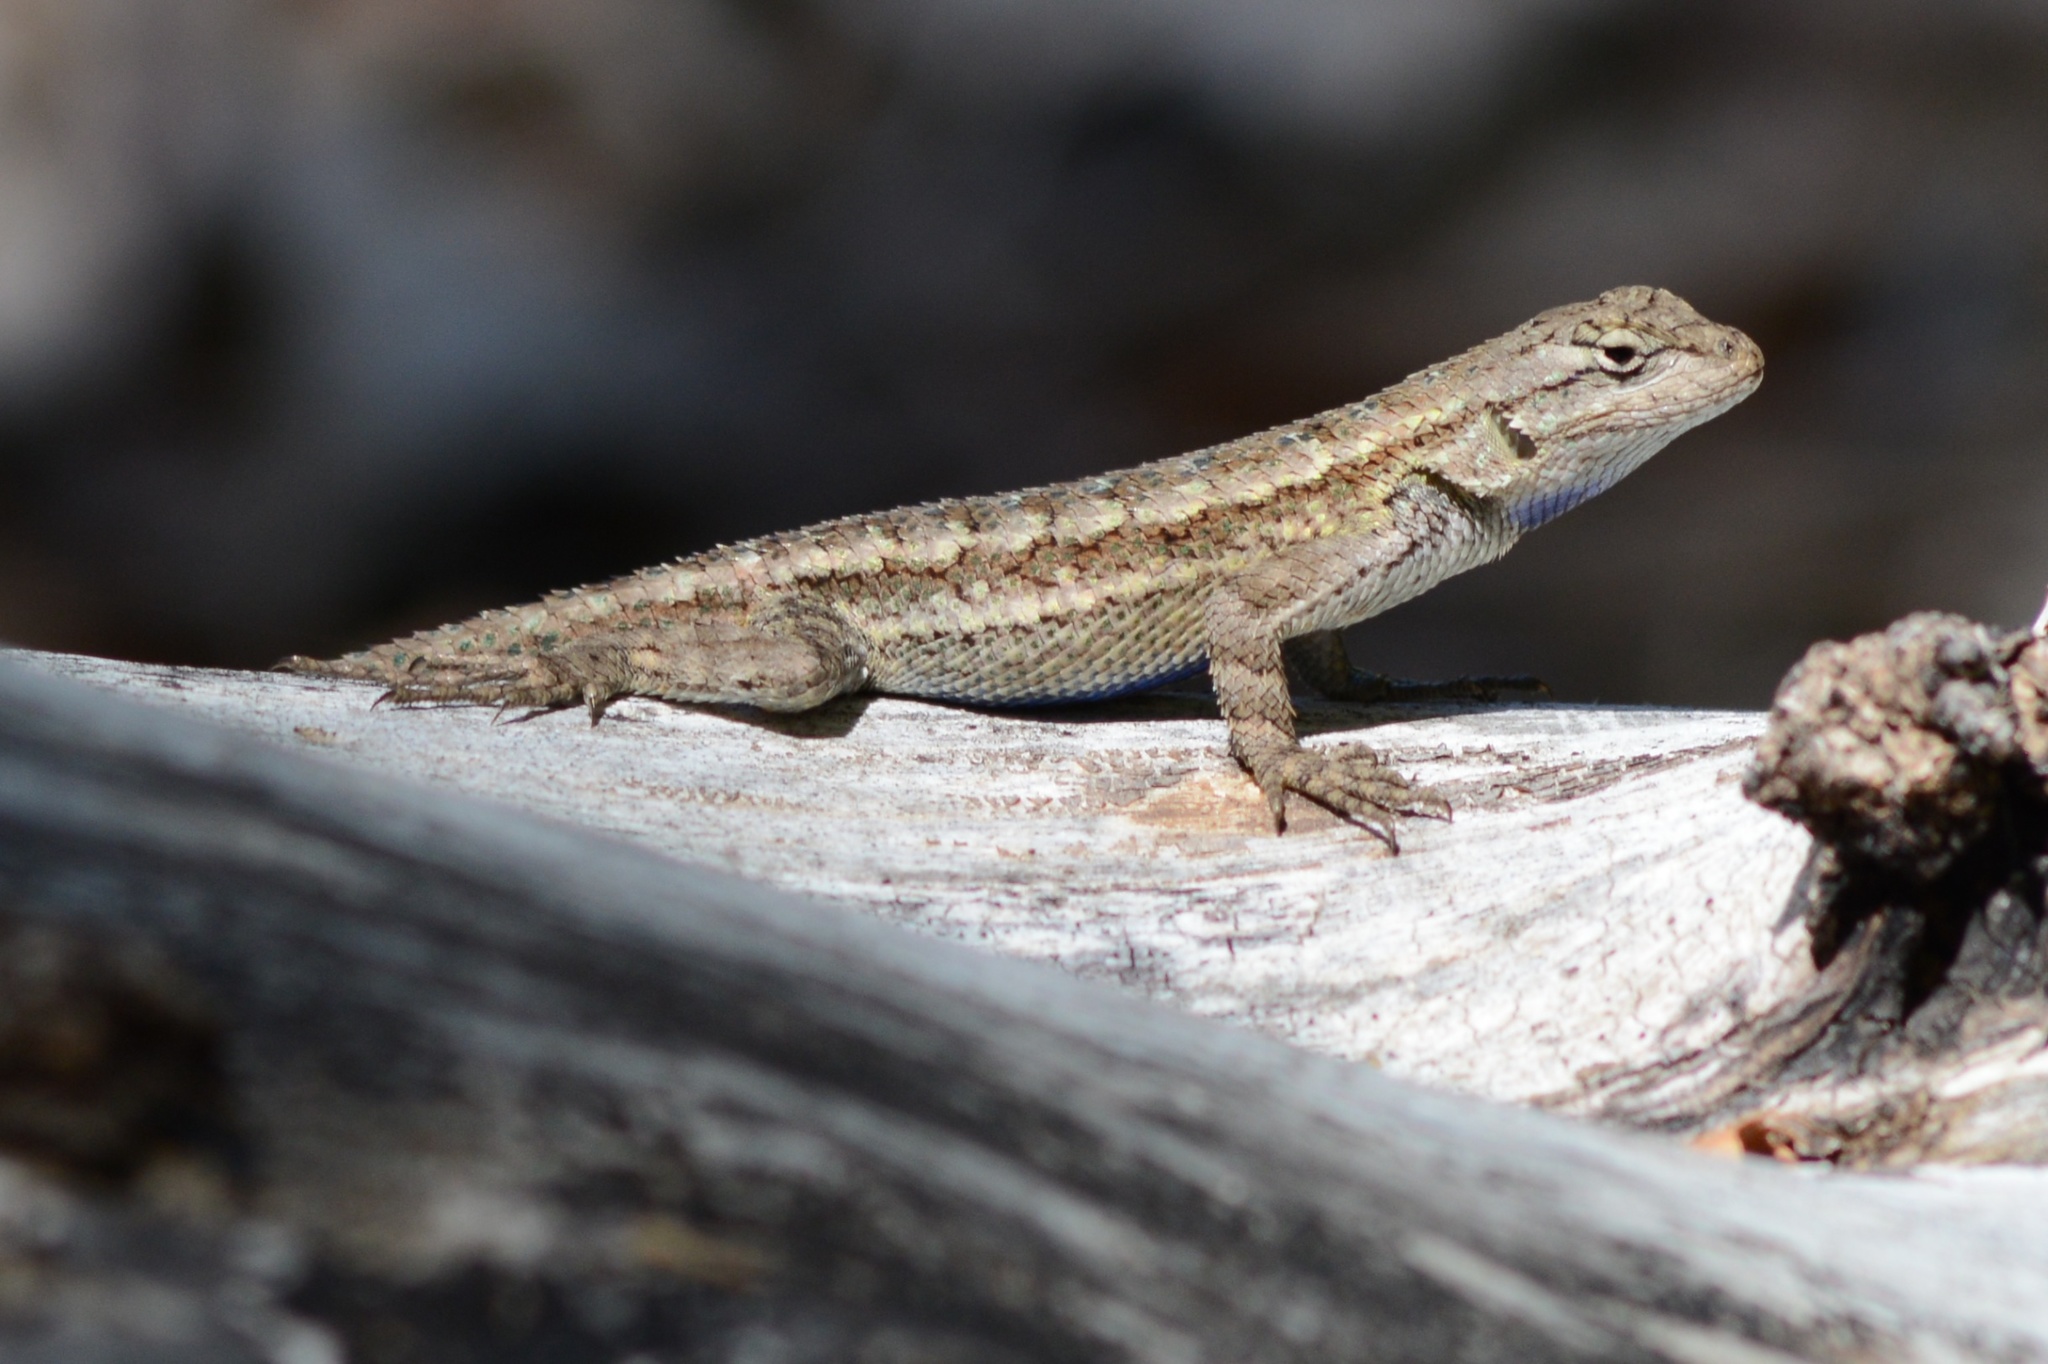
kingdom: Animalia
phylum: Chordata
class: Squamata
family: Phrynosomatidae
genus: Sceloporus
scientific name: Sceloporus occidentalis
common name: Western fence lizard
